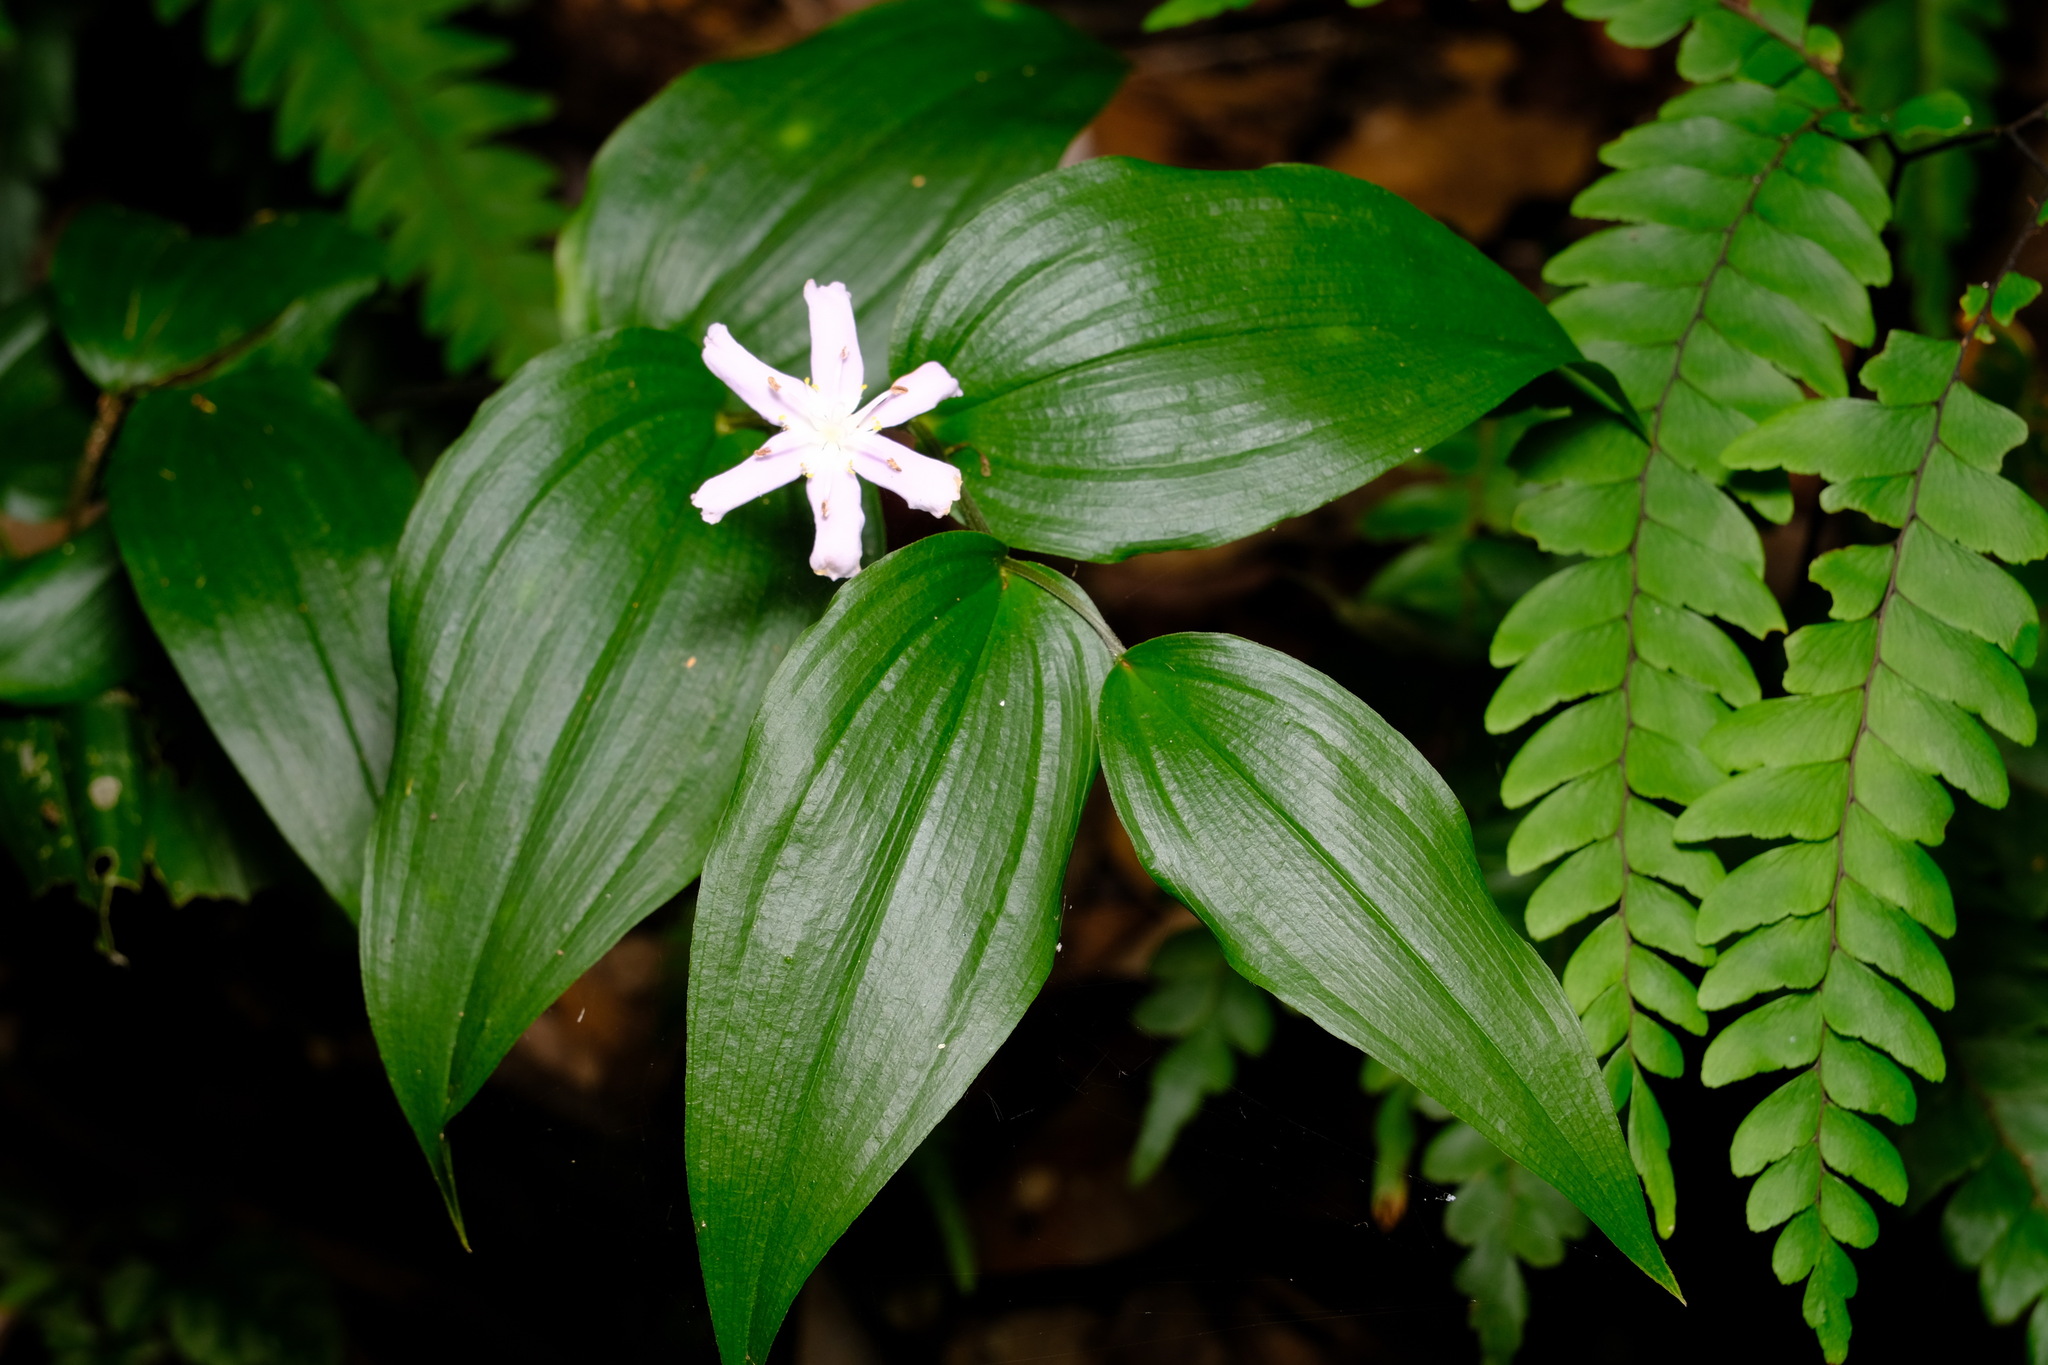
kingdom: Plantae
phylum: Tracheophyta
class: Liliopsida
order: Liliales
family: Colchicaceae
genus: Tripladenia
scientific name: Tripladenia cunninghamii
